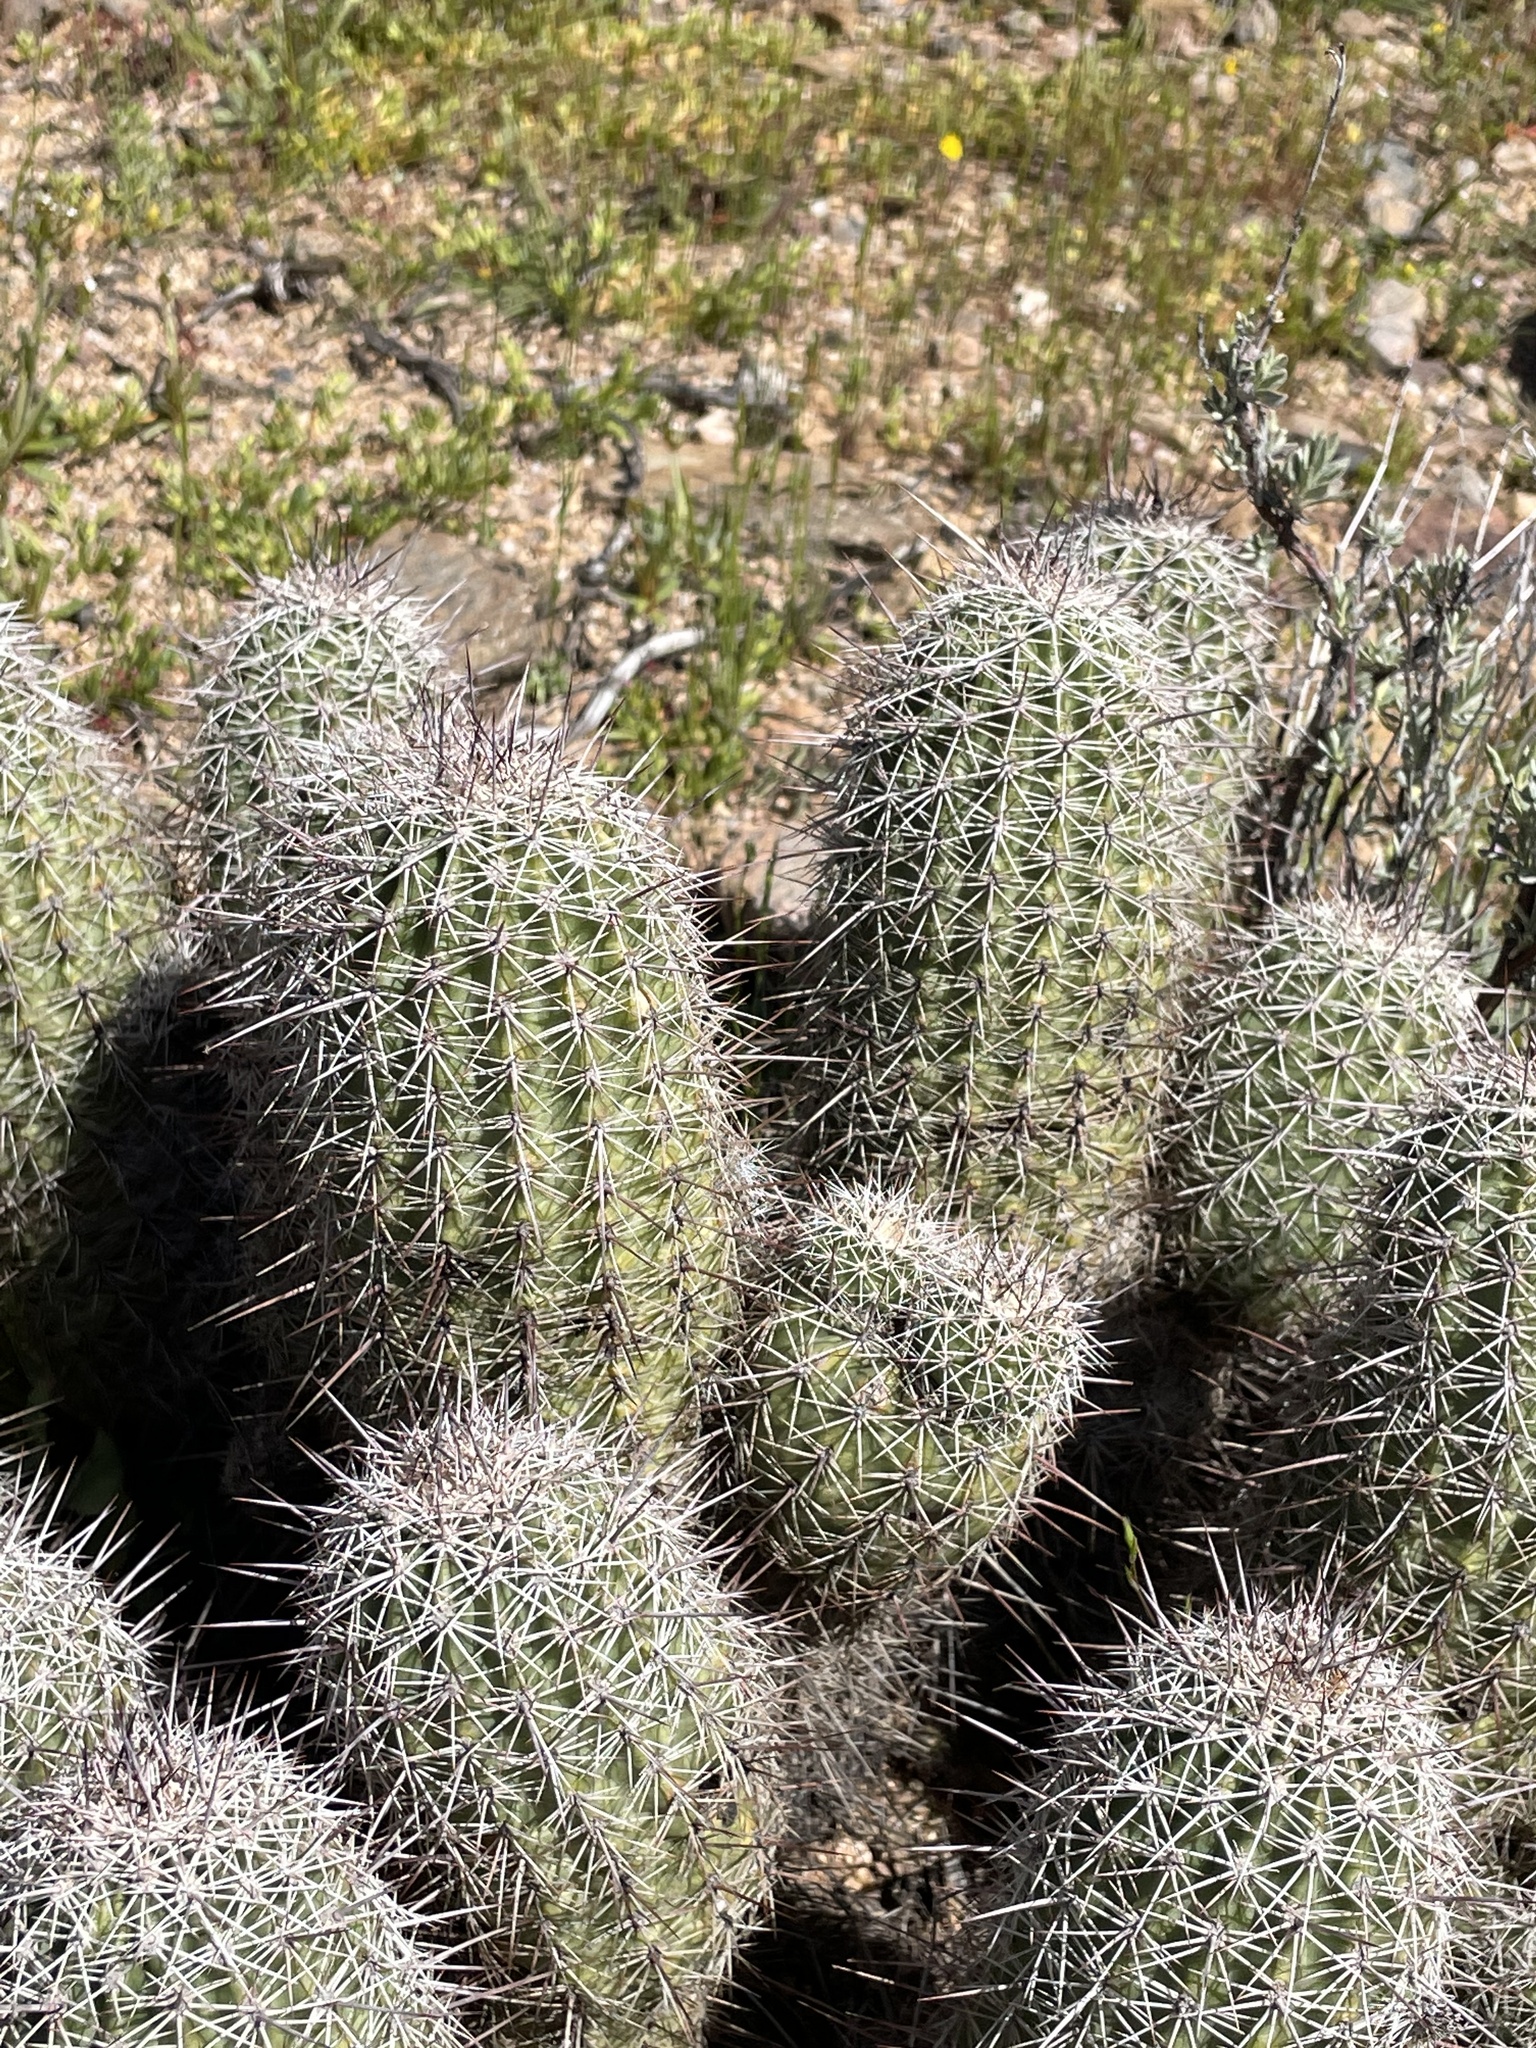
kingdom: Plantae
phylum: Tracheophyta
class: Magnoliopsida
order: Caryophyllales
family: Cactaceae
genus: Echinocereus
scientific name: Echinocereus bonkerae
